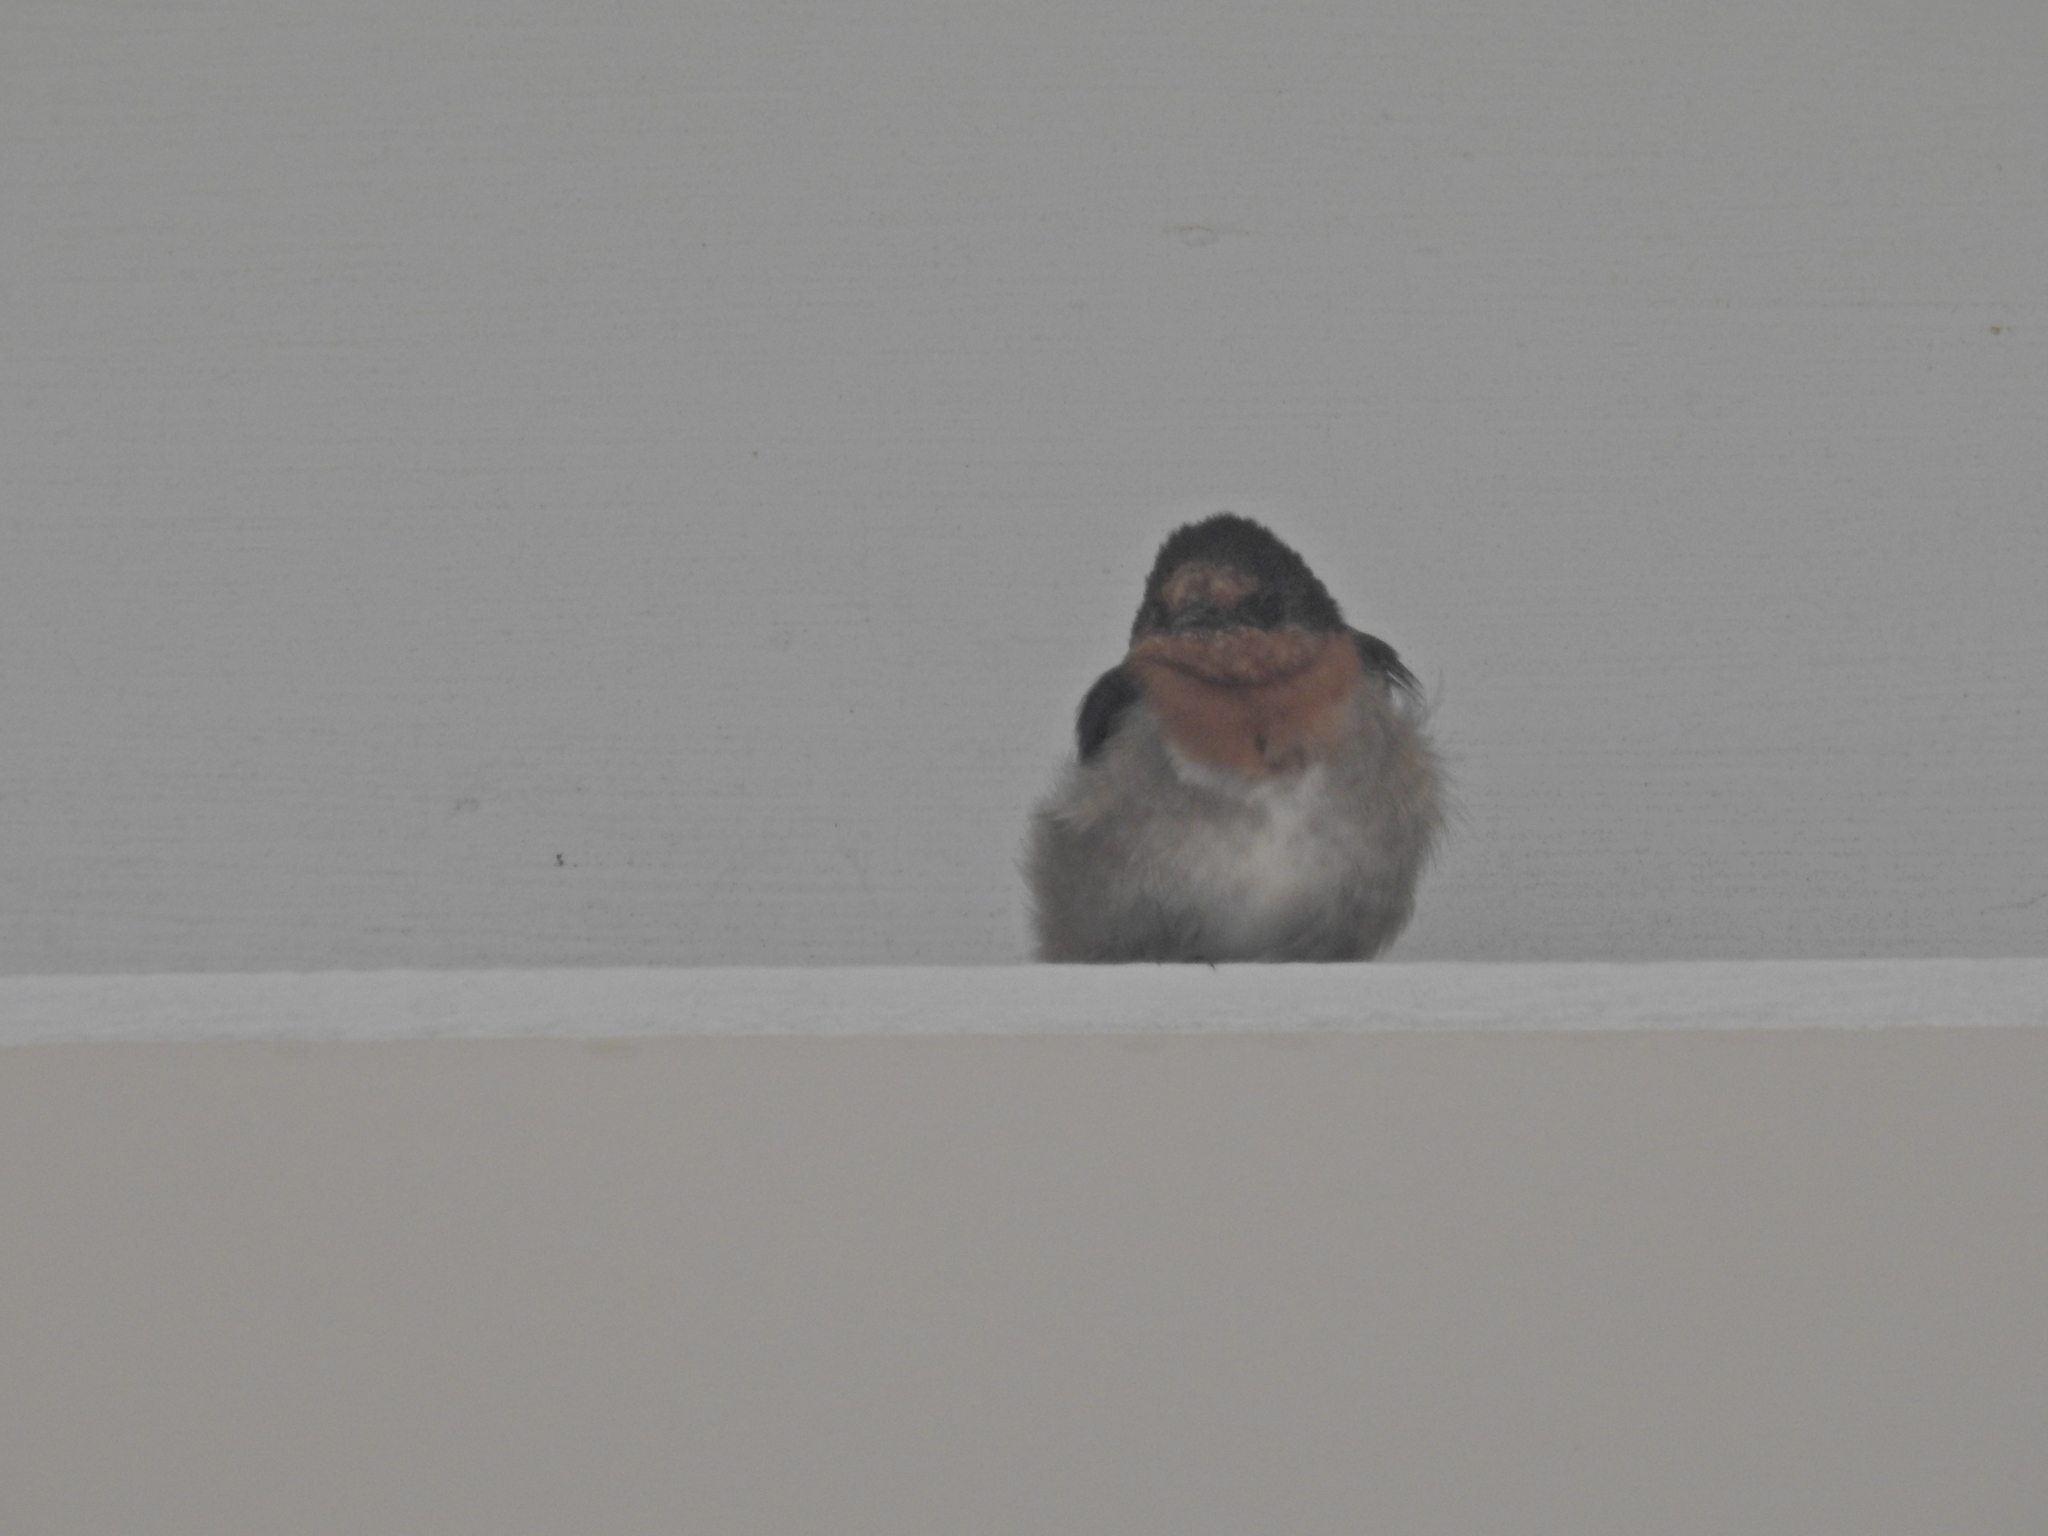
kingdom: Animalia
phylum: Chordata
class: Aves
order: Passeriformes
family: Hirundinidae
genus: Hirundo
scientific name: Hirundo neoxena
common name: Welcome swallow
